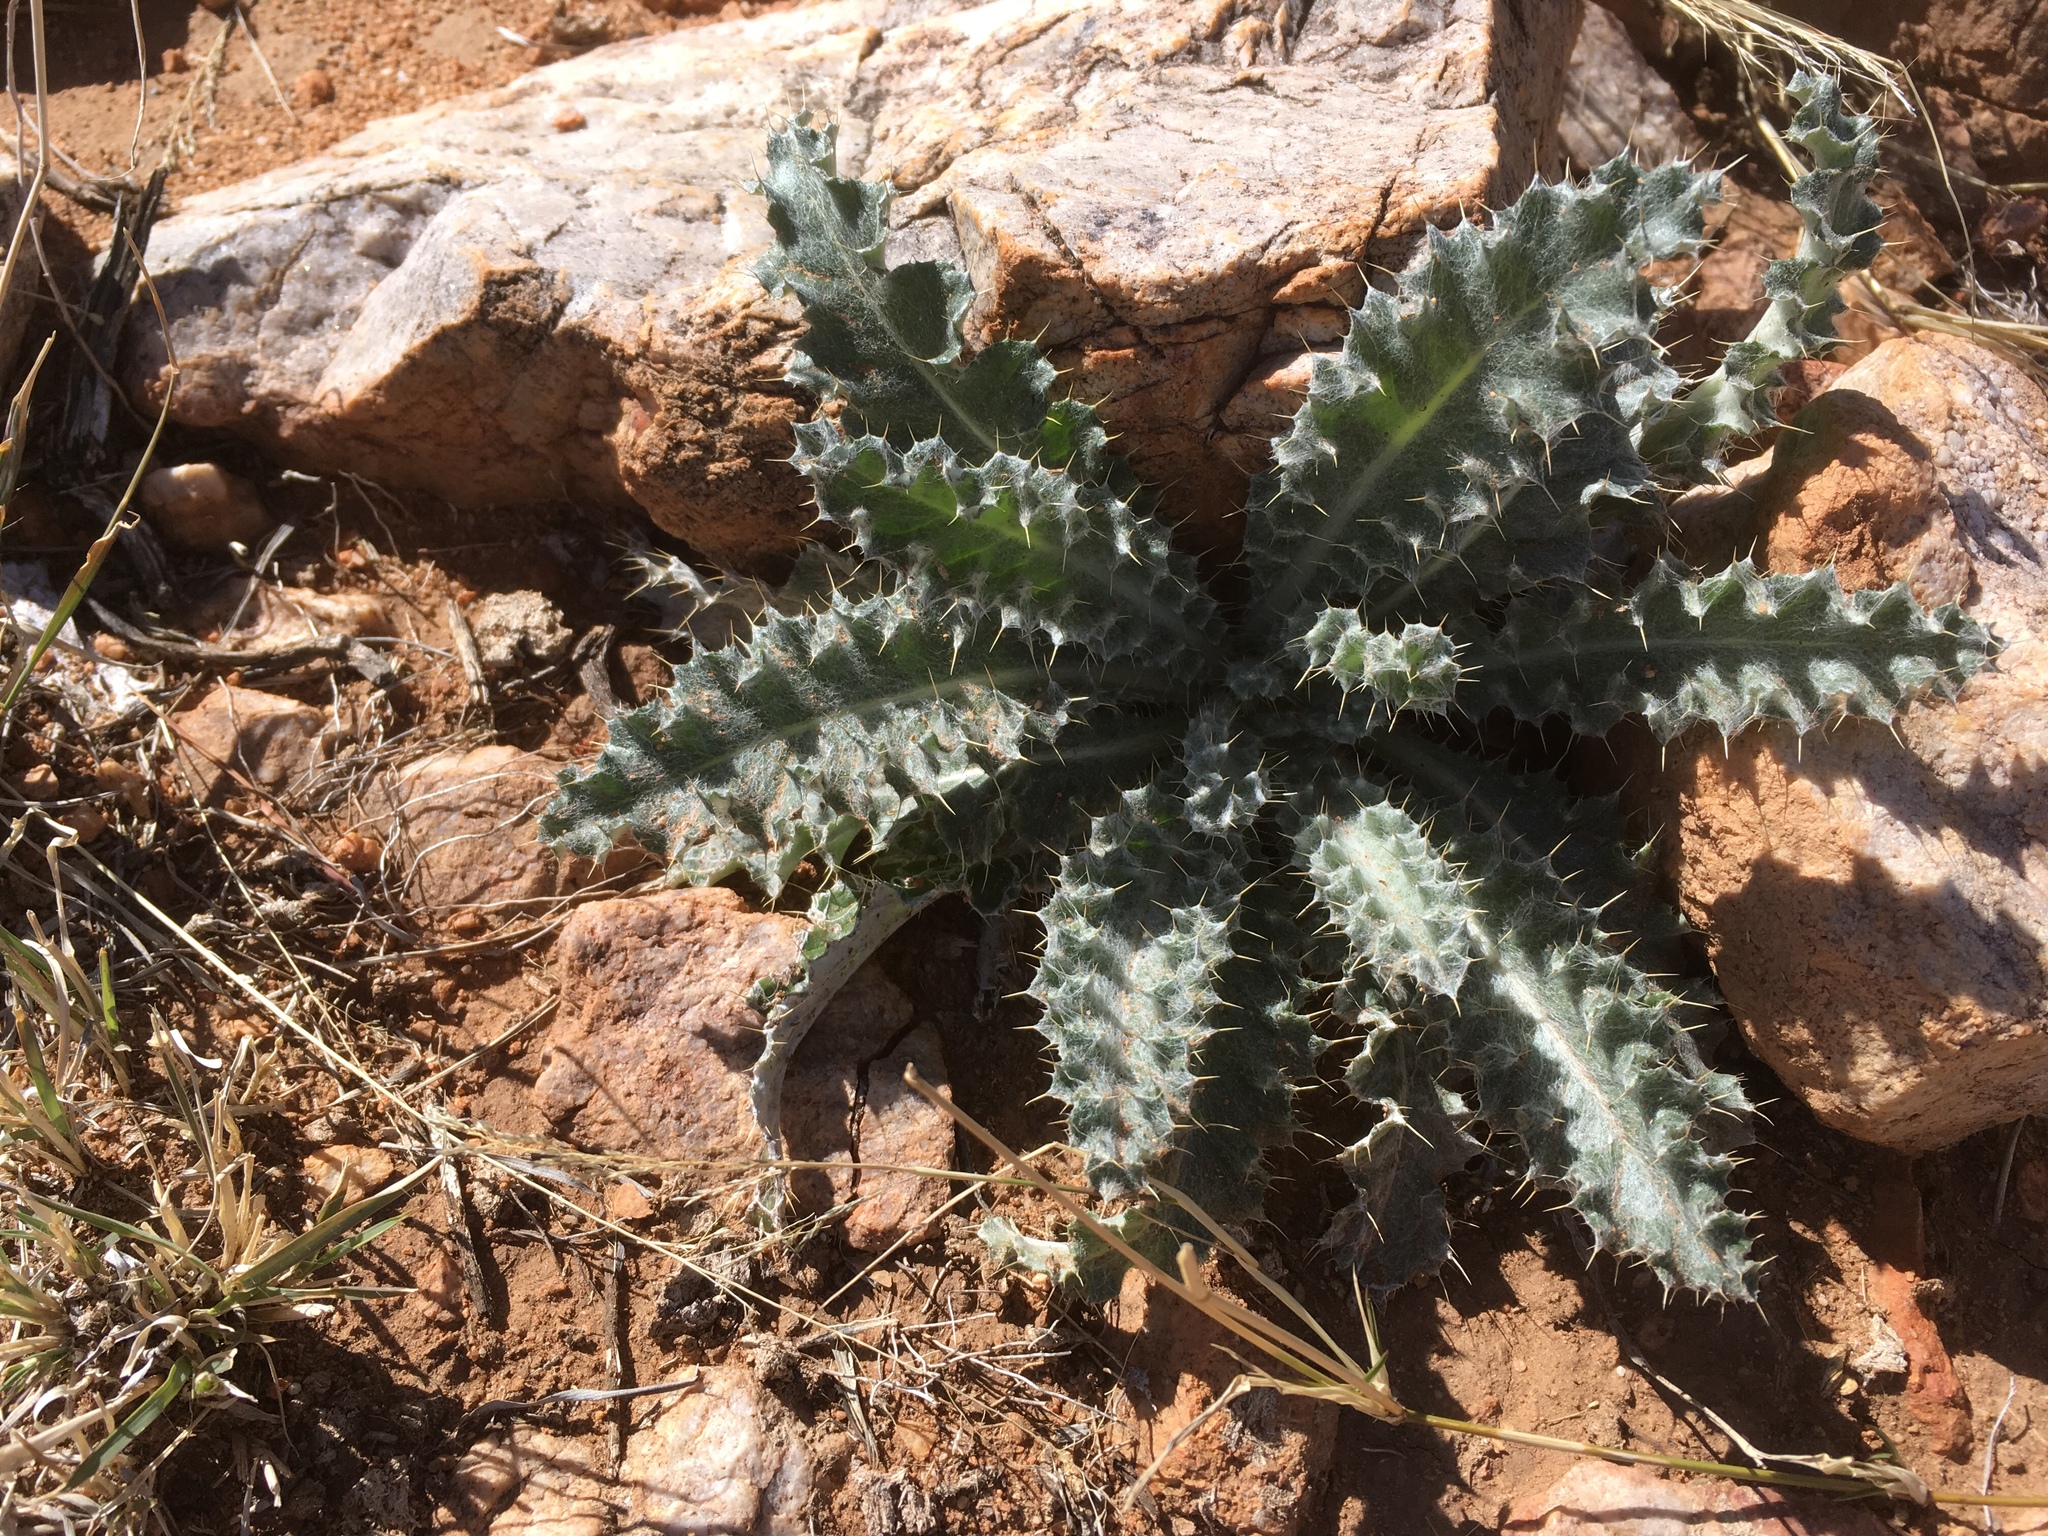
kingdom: Plantae
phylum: Tracheophyta
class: Magnoliopsida
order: Asterales
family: Asteraceae
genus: Cirsium
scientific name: Cirsium neomexicanum
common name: New mexico thistle
